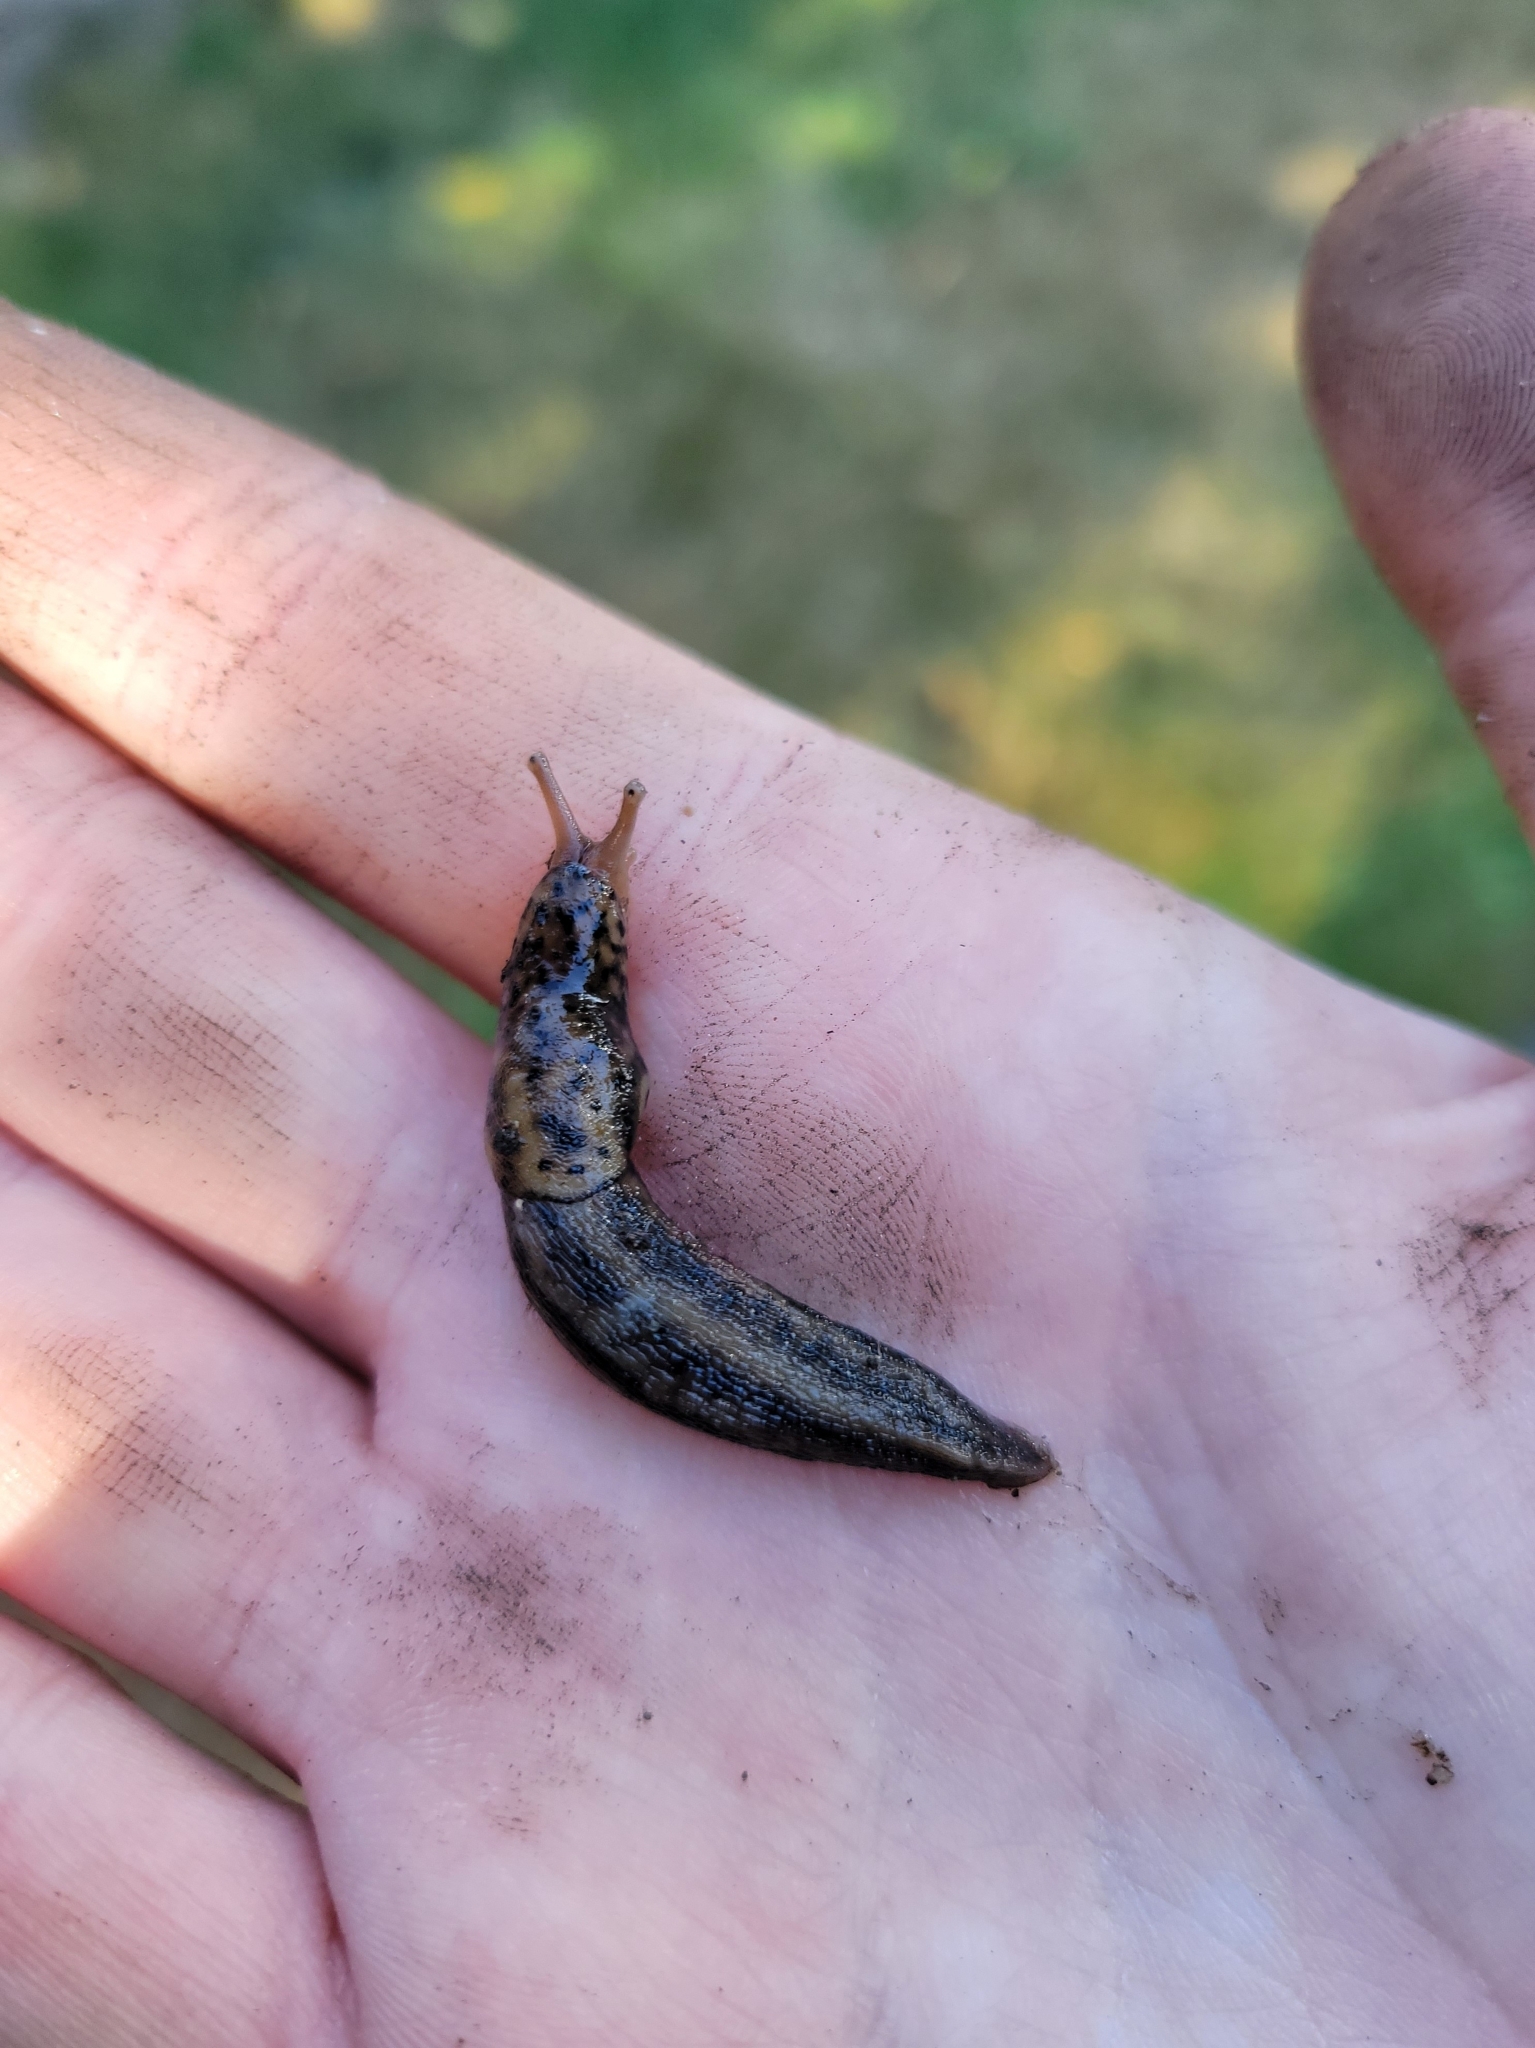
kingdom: Animalia
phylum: Mollusca
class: Gastropoda
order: Stylommatophora
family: Limacidae
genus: Limax
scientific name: Limax maximus
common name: Great grey slug
